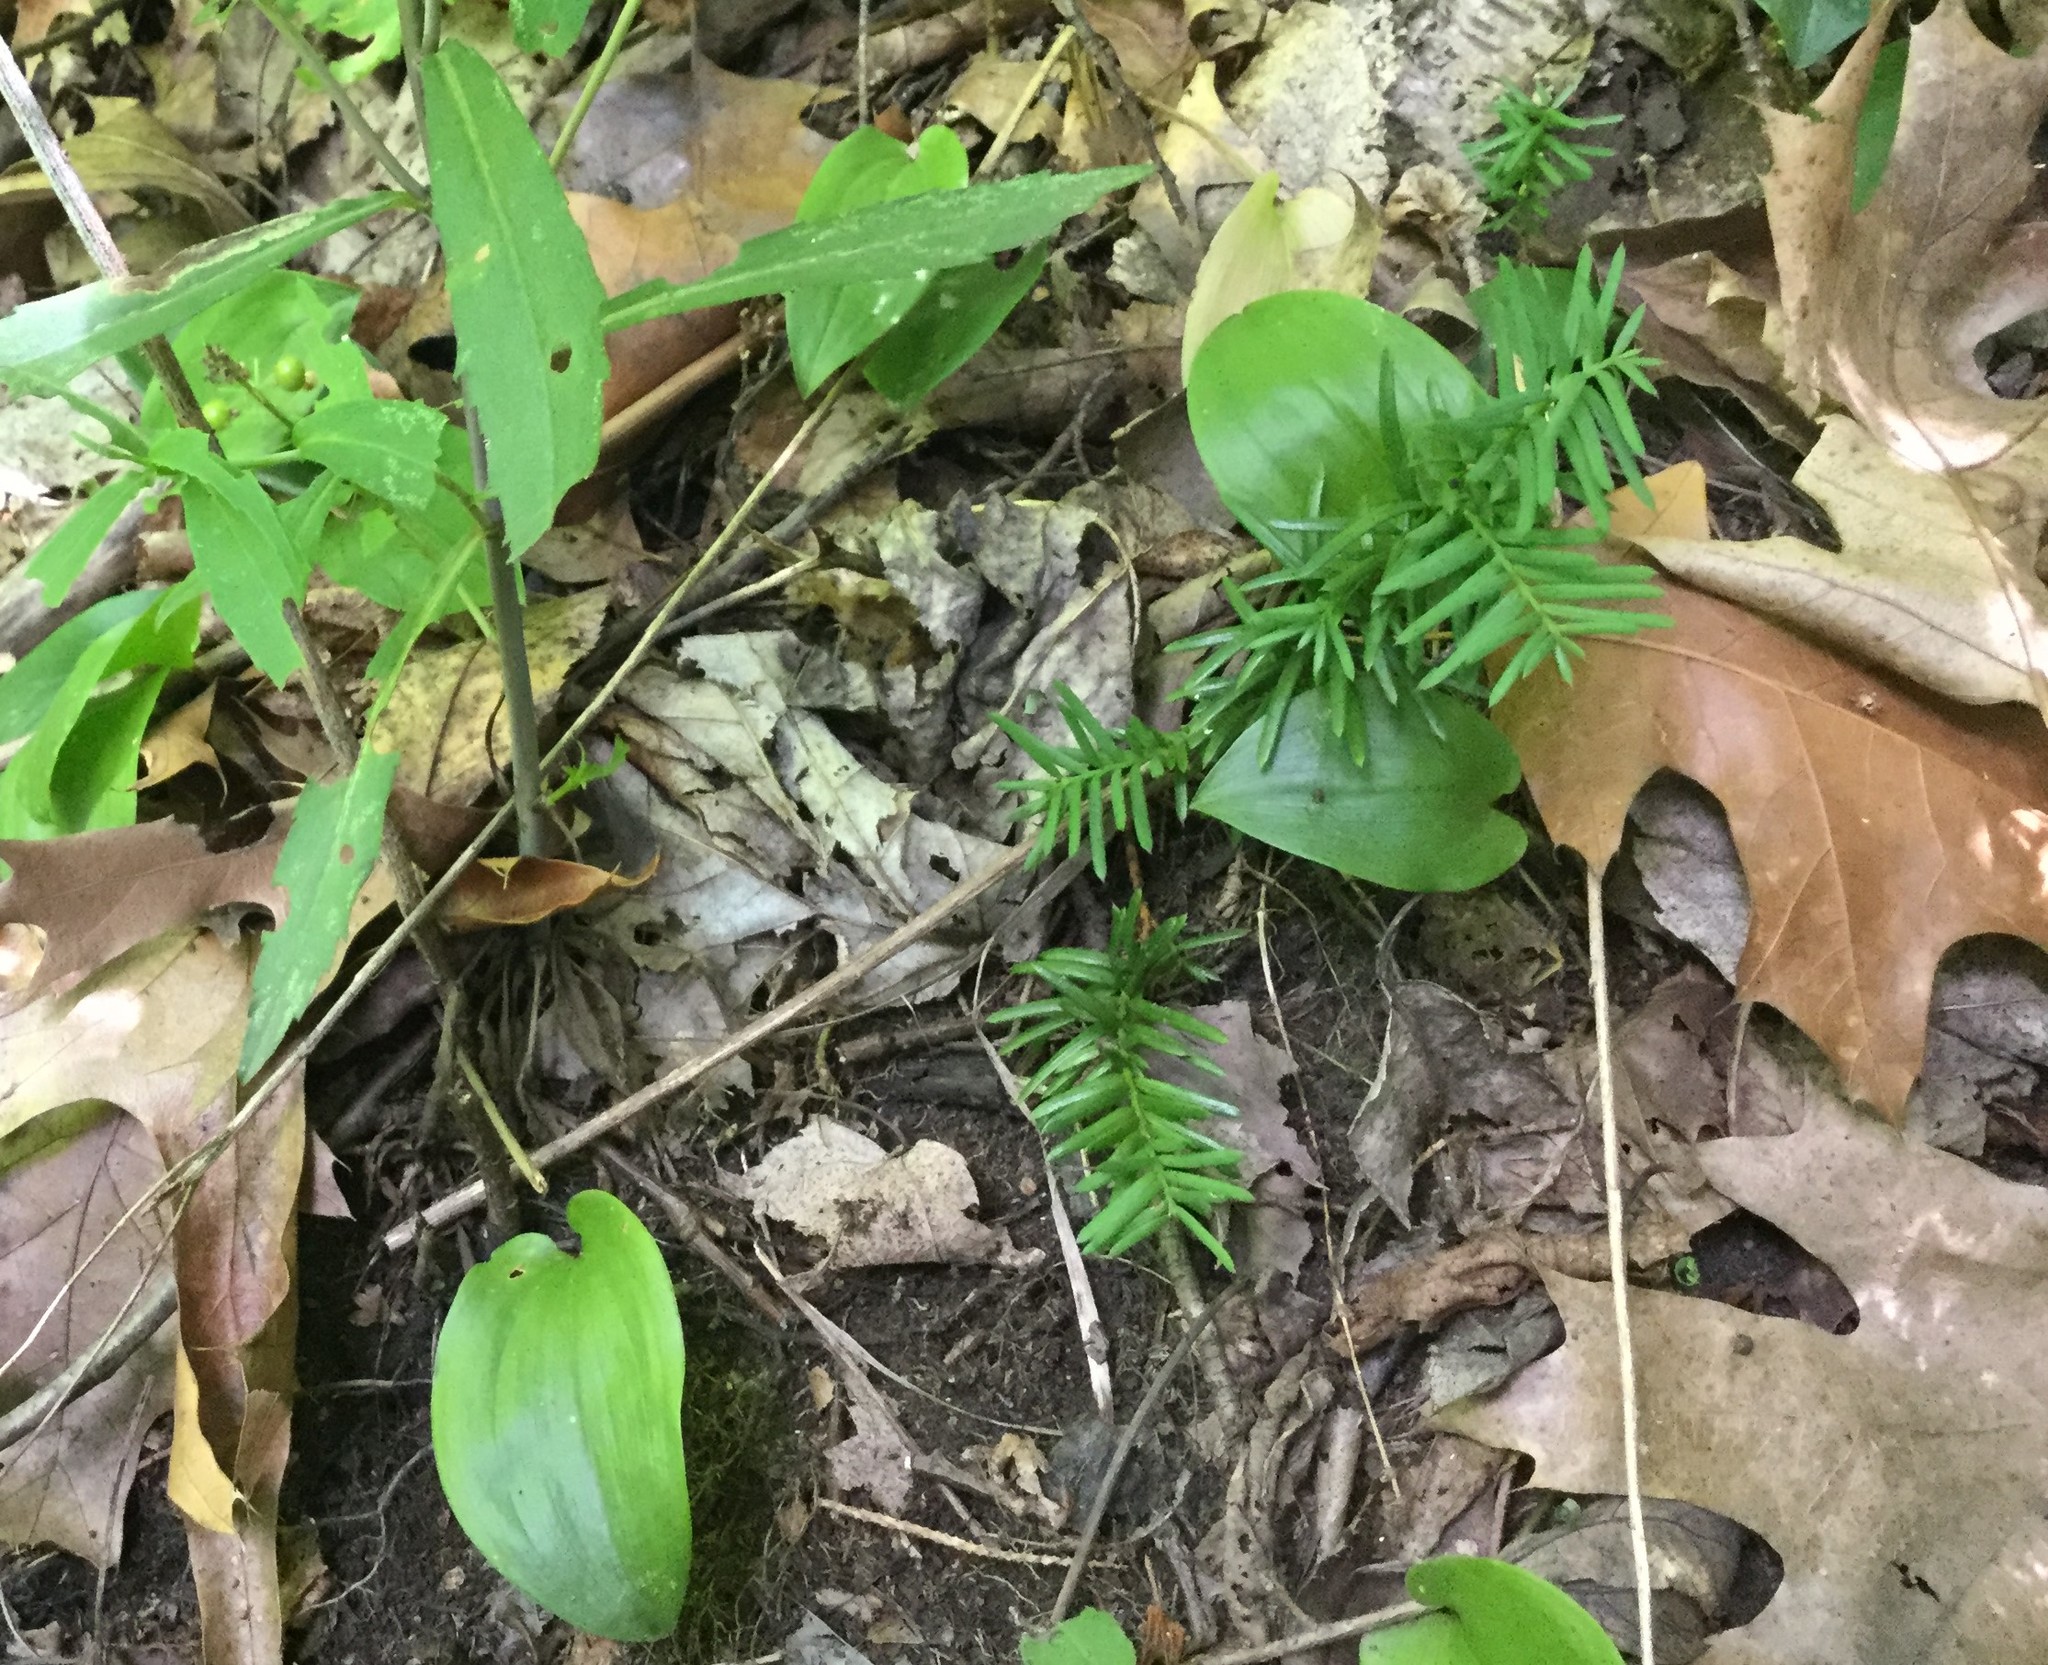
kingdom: Plantae
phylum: Tracheophyta
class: Pinopsida
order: Pinales
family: Taxaceae
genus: Taxus
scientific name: Taxus canadensis
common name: American yew
